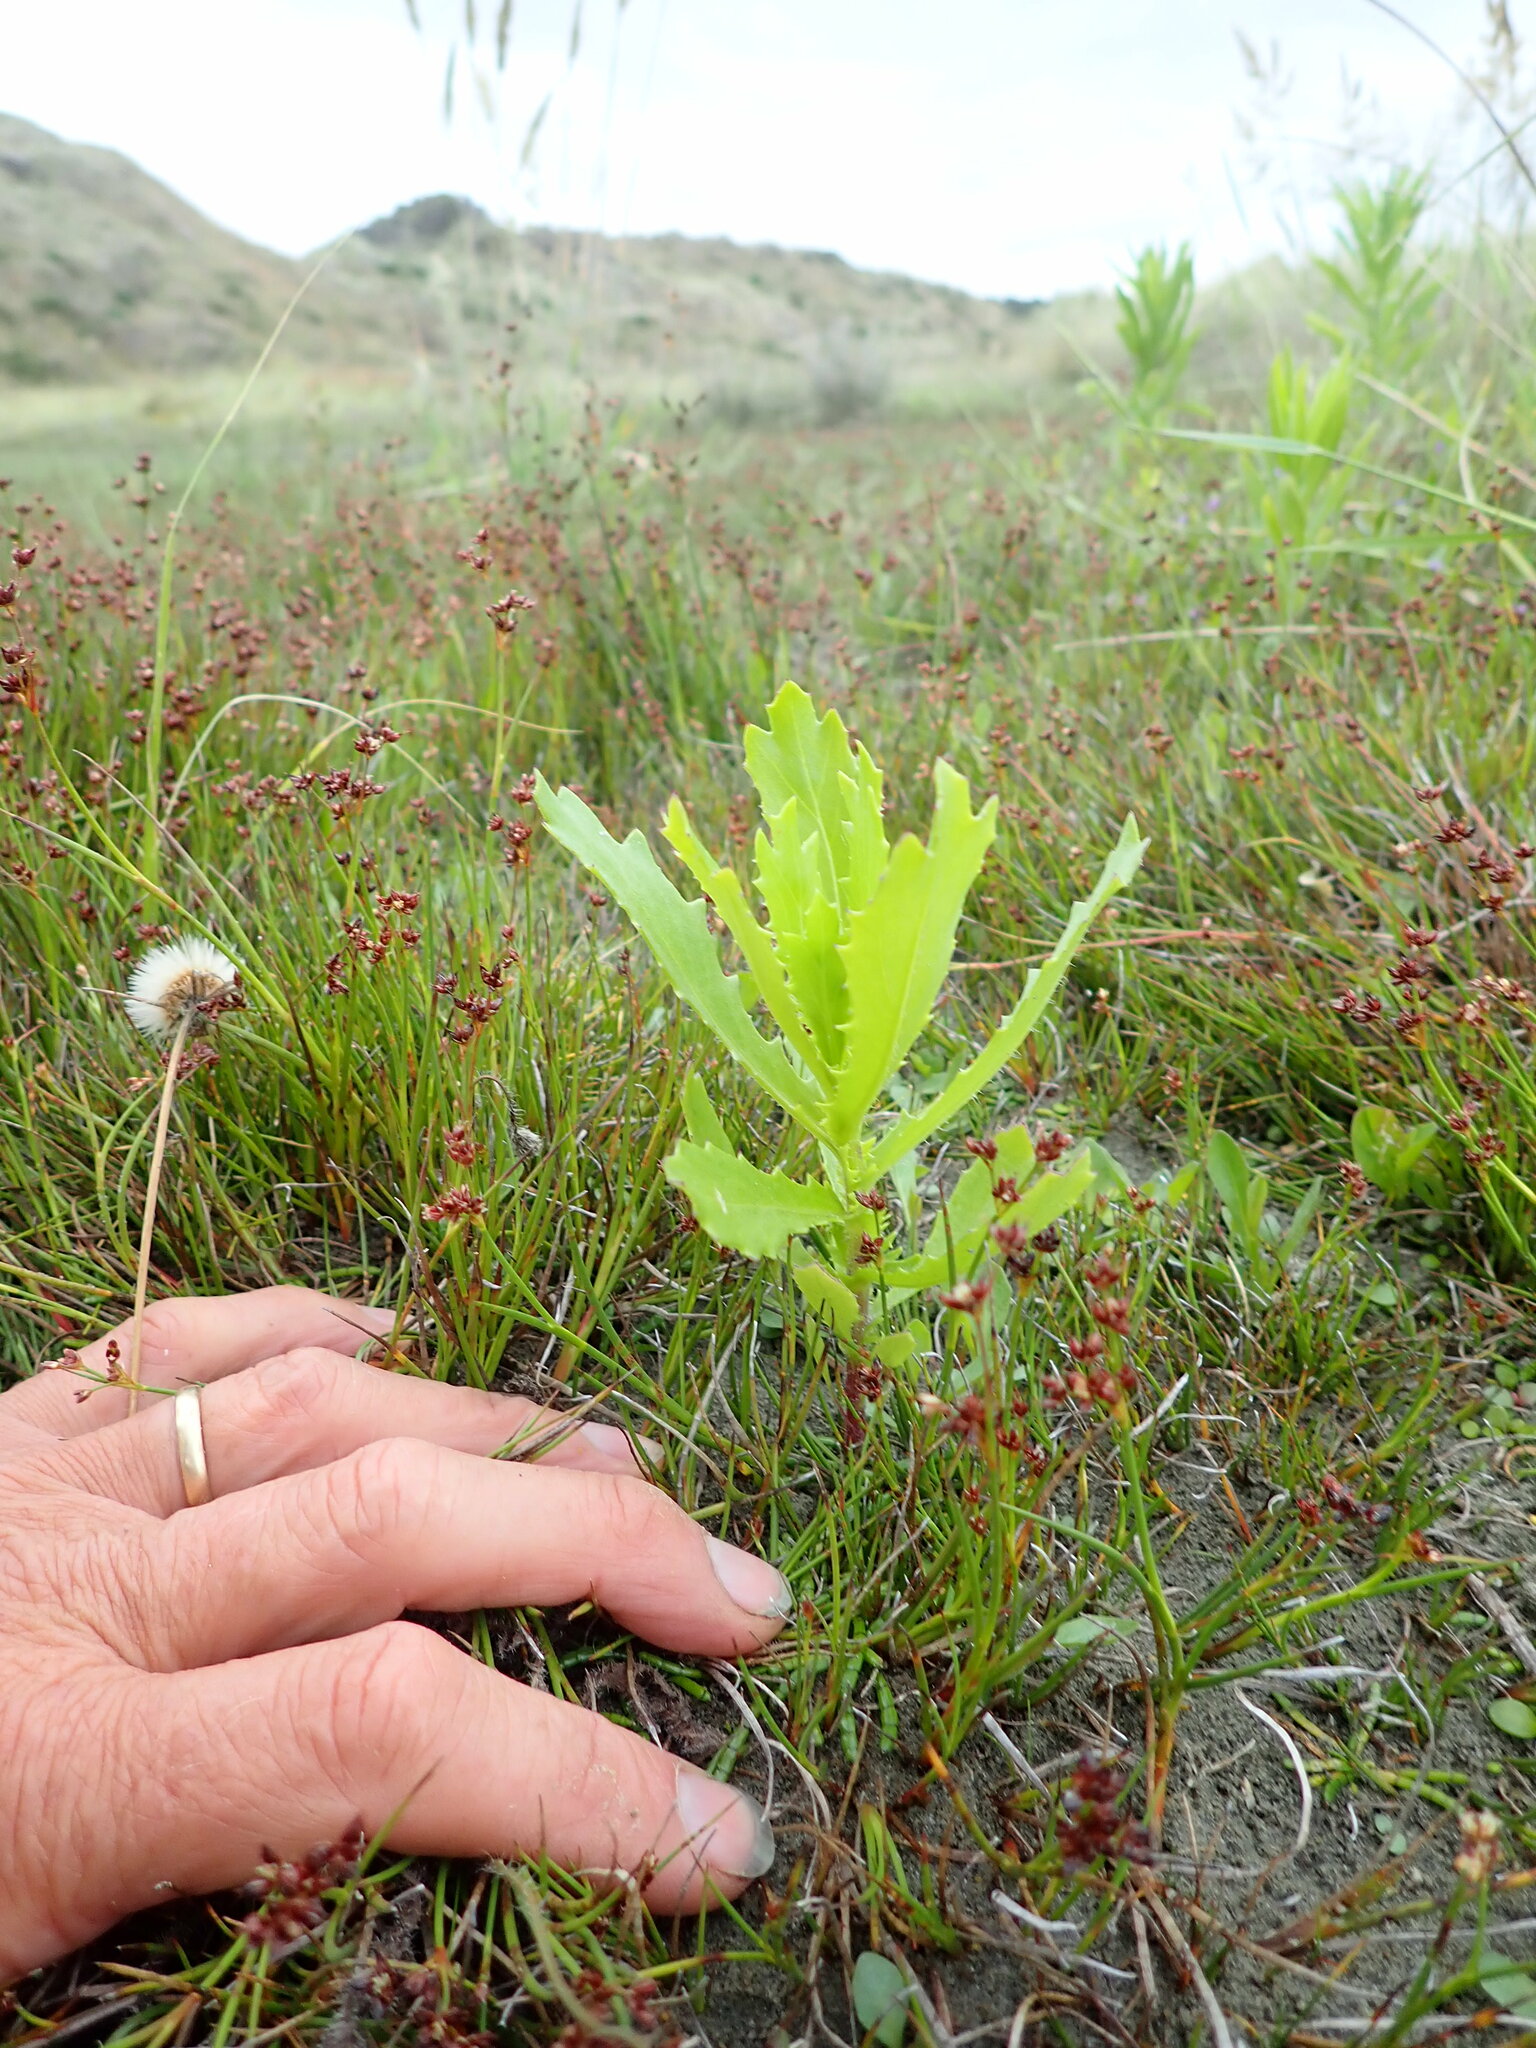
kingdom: Plantae
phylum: Tracheophyta
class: Magnoliopsida
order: Asterales
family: Asteraceae
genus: Senecio
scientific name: Senecio glastifolius
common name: Woad-leaved ragwort
